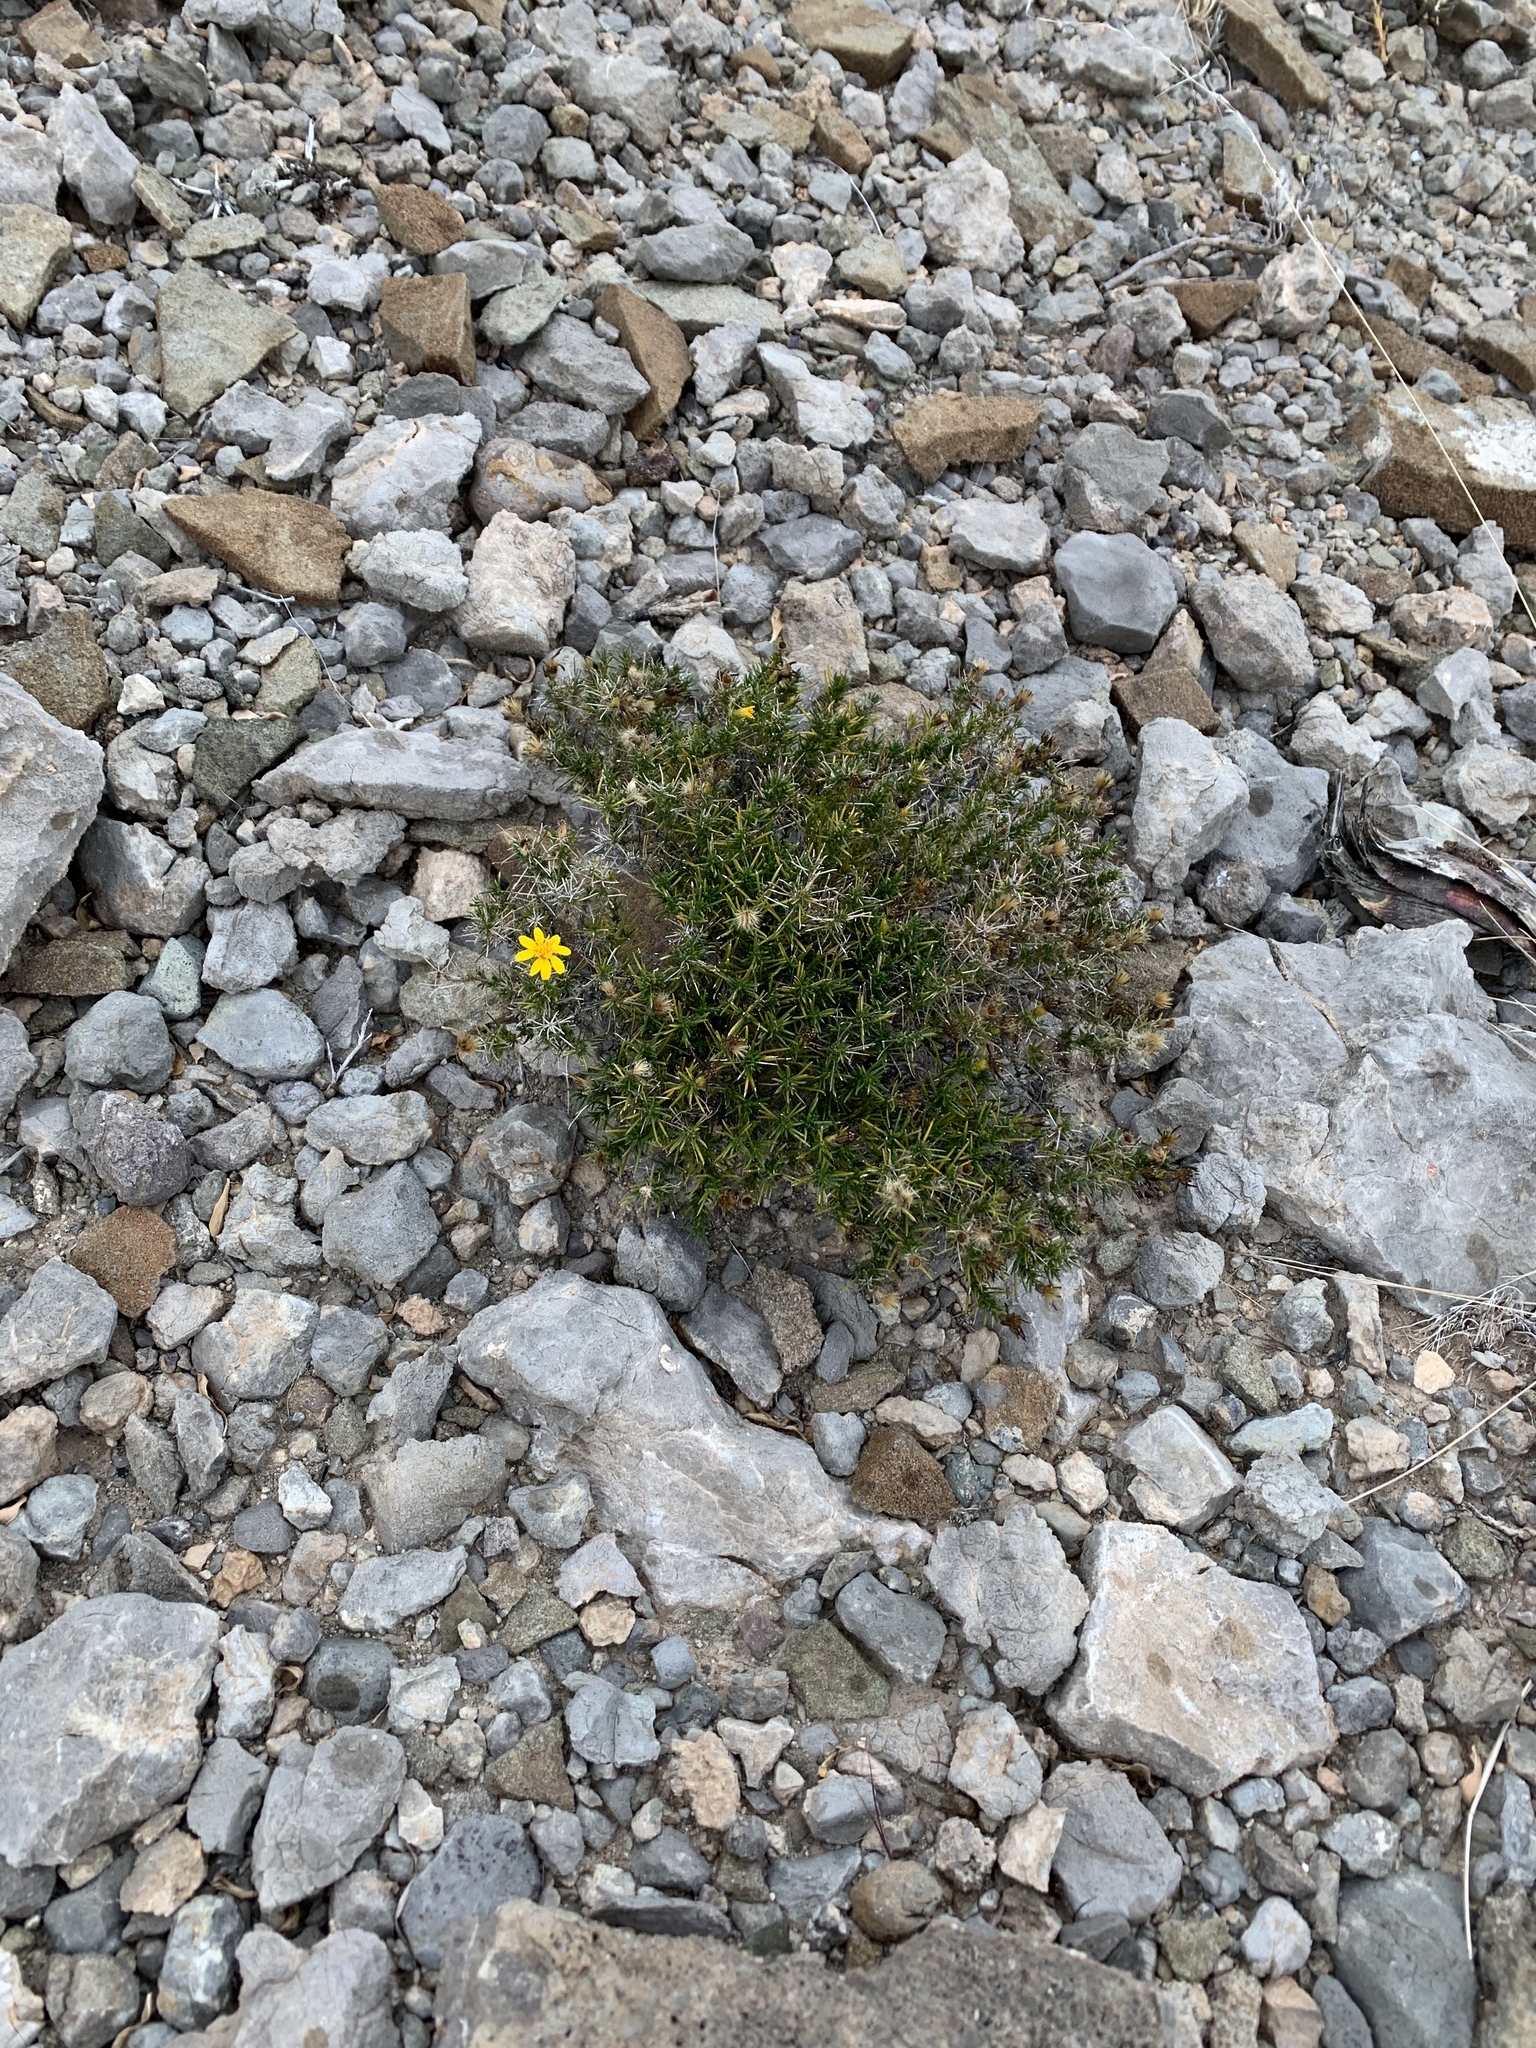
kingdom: Plantae
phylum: Tracheophyta
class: Magnoliopsida
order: Asterales
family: Asteraceae
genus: Thymophylla
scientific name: Thymophylla acerosa
